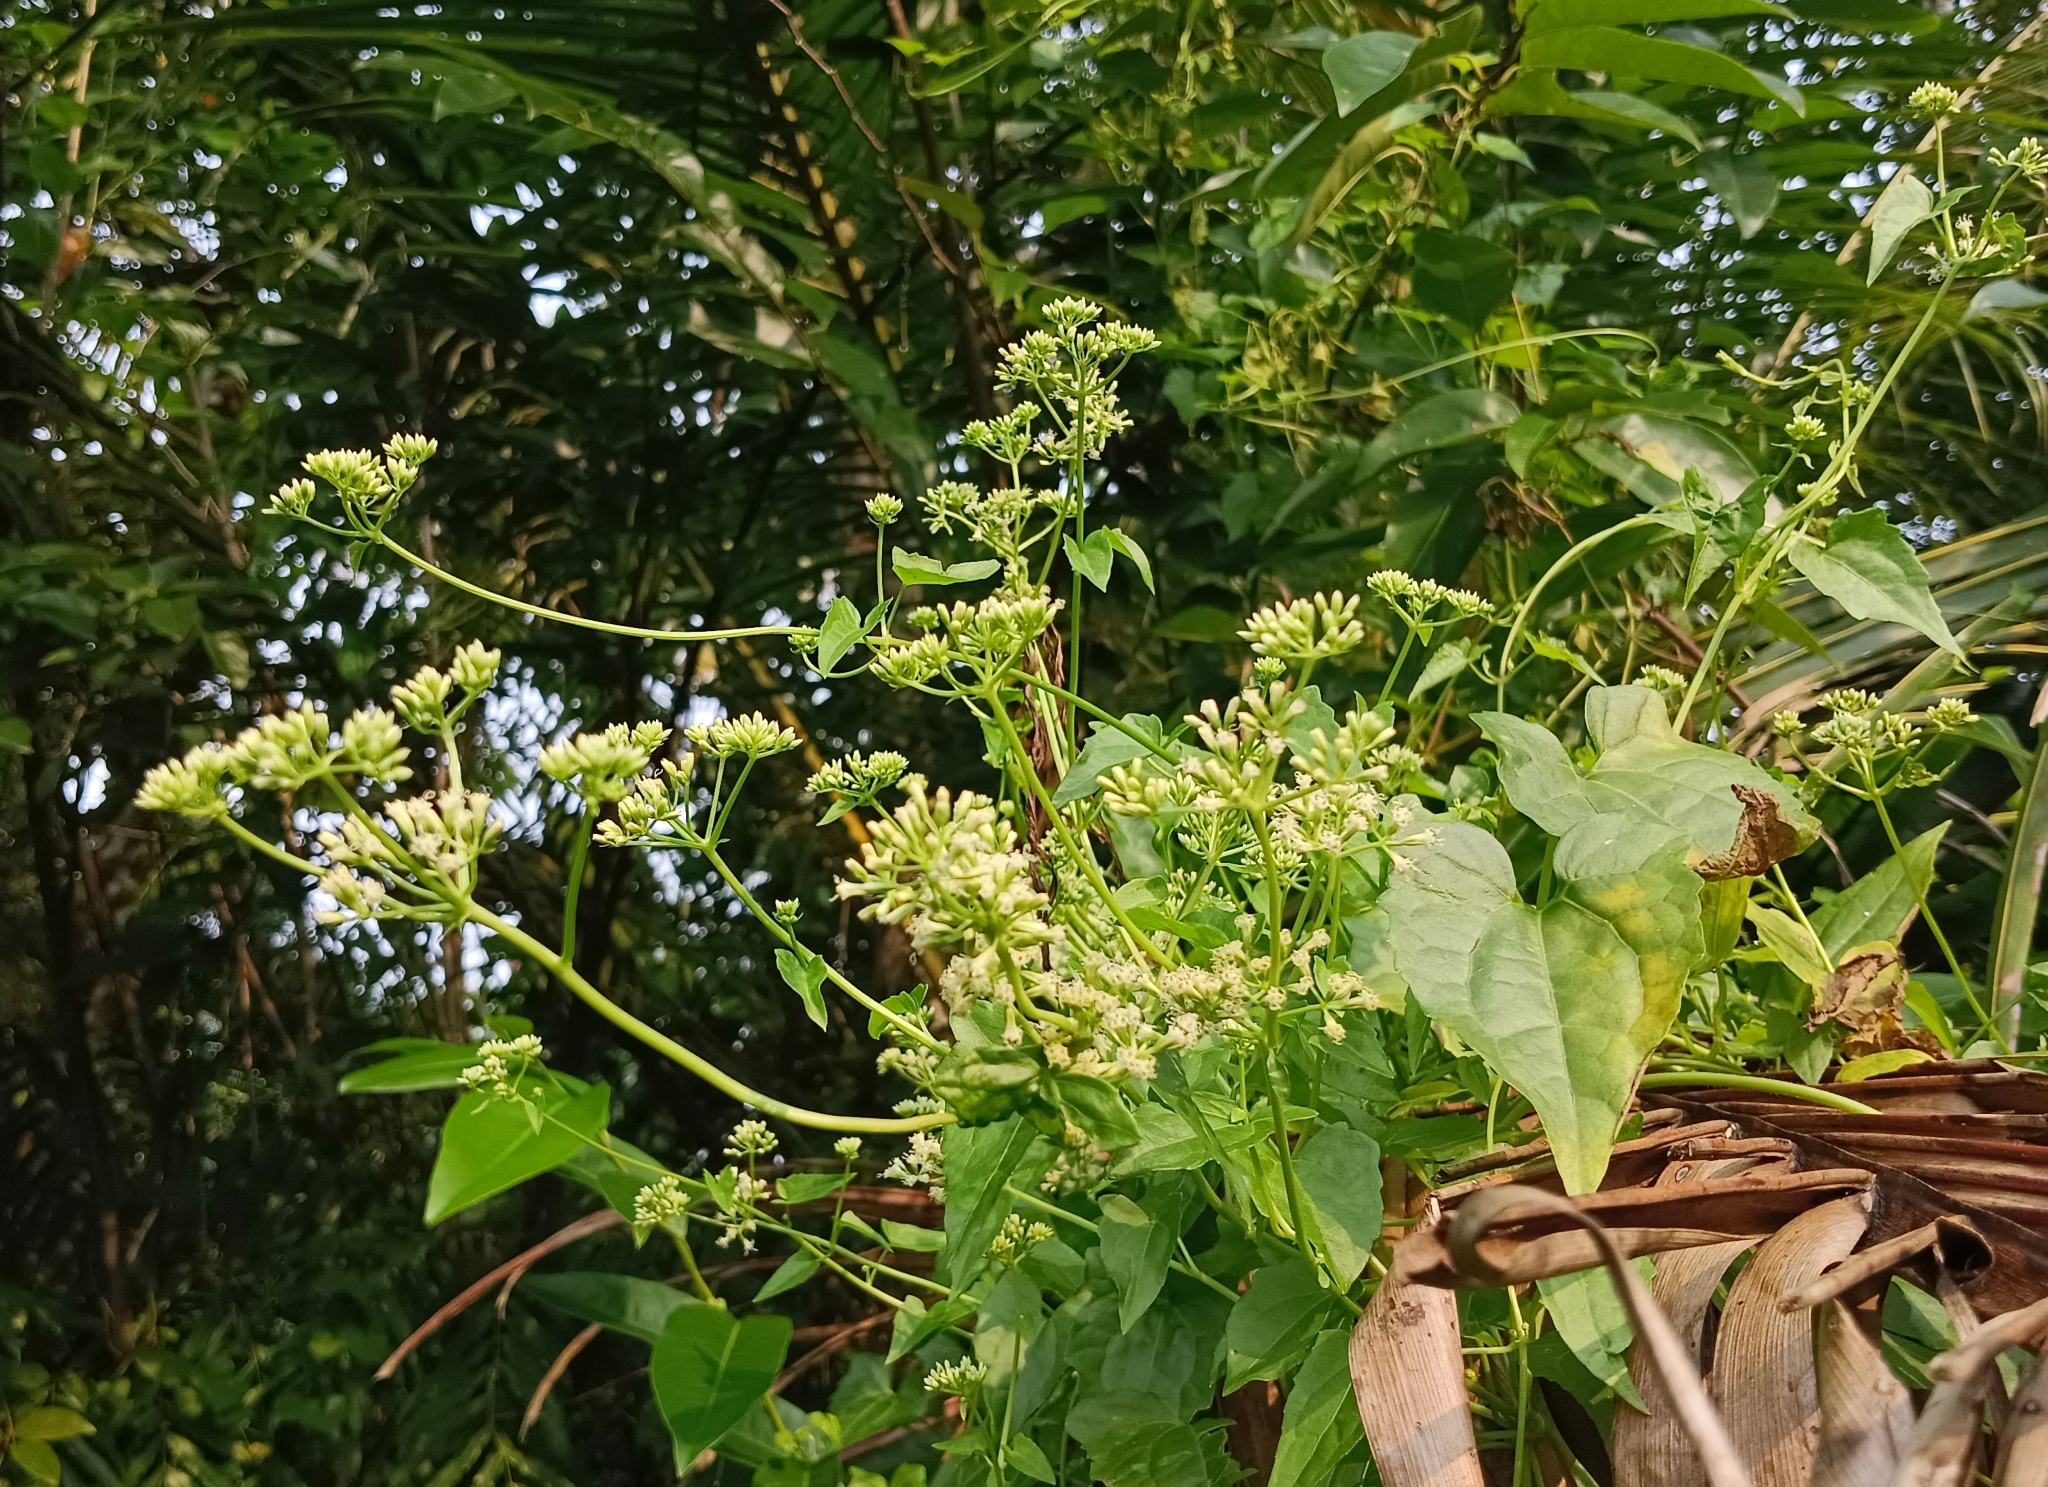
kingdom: Plantae
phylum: Tracheophyta
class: Magnoliopsida
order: Asterales
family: Asteraceae
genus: Mikania
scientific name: Mikania micrantha
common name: Mile-a-minute
